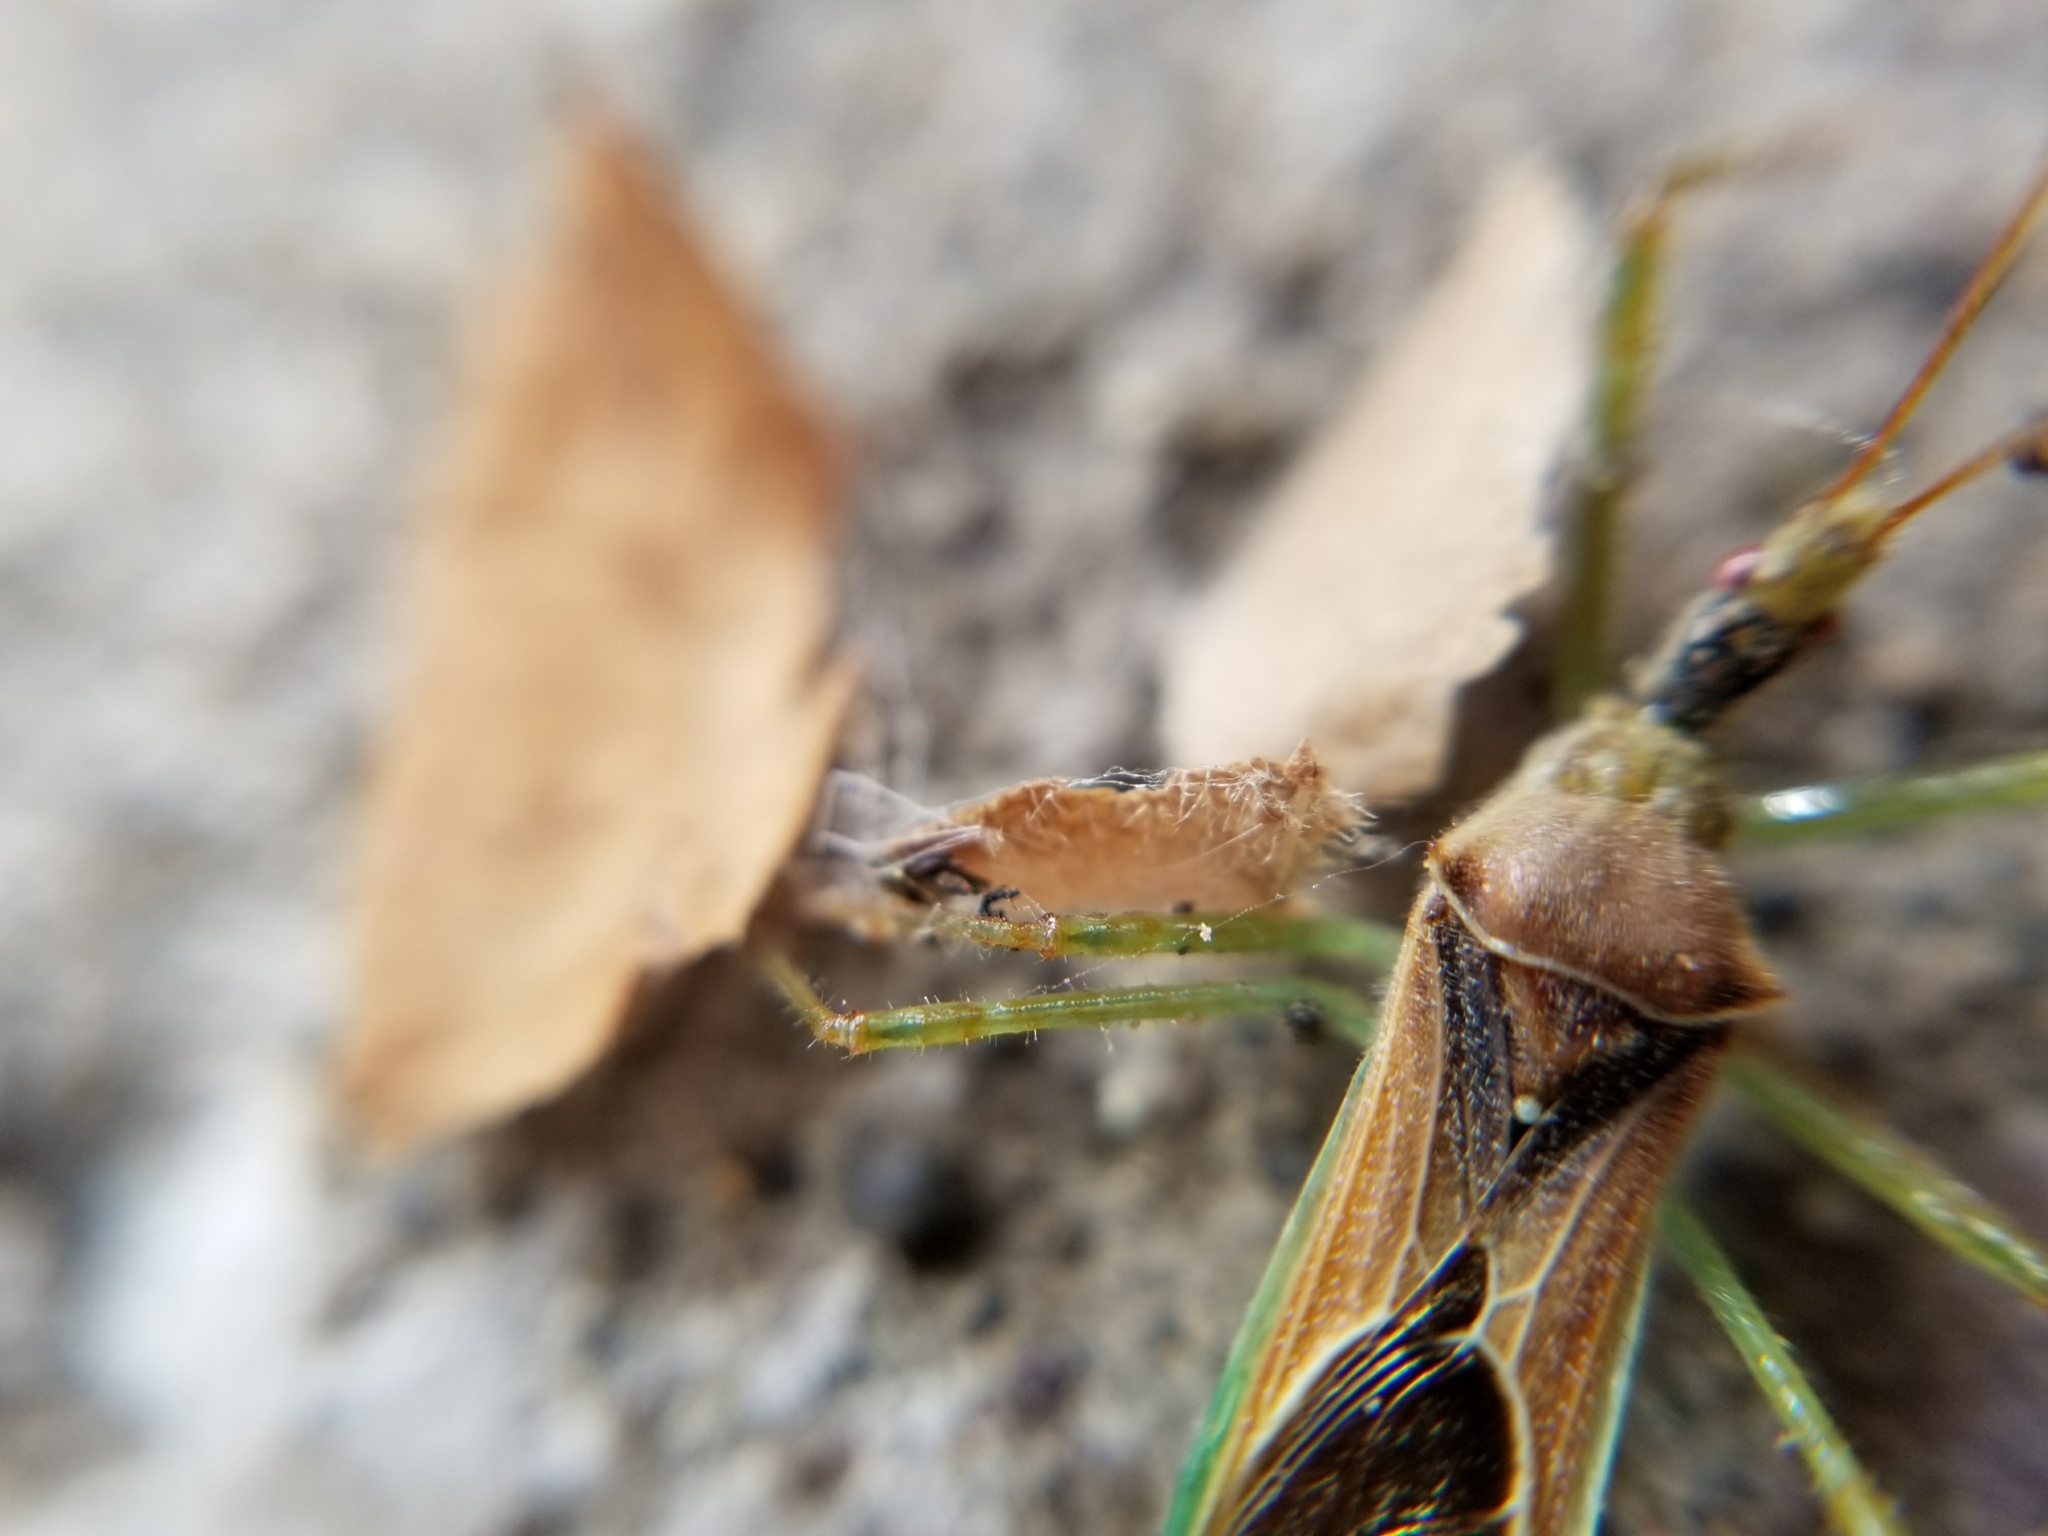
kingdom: Animalia
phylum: Arthropoda
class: Insecta
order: Hemiptera
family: Reduviidae
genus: Zelus
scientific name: Zelus renardii
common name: Assassin bug
